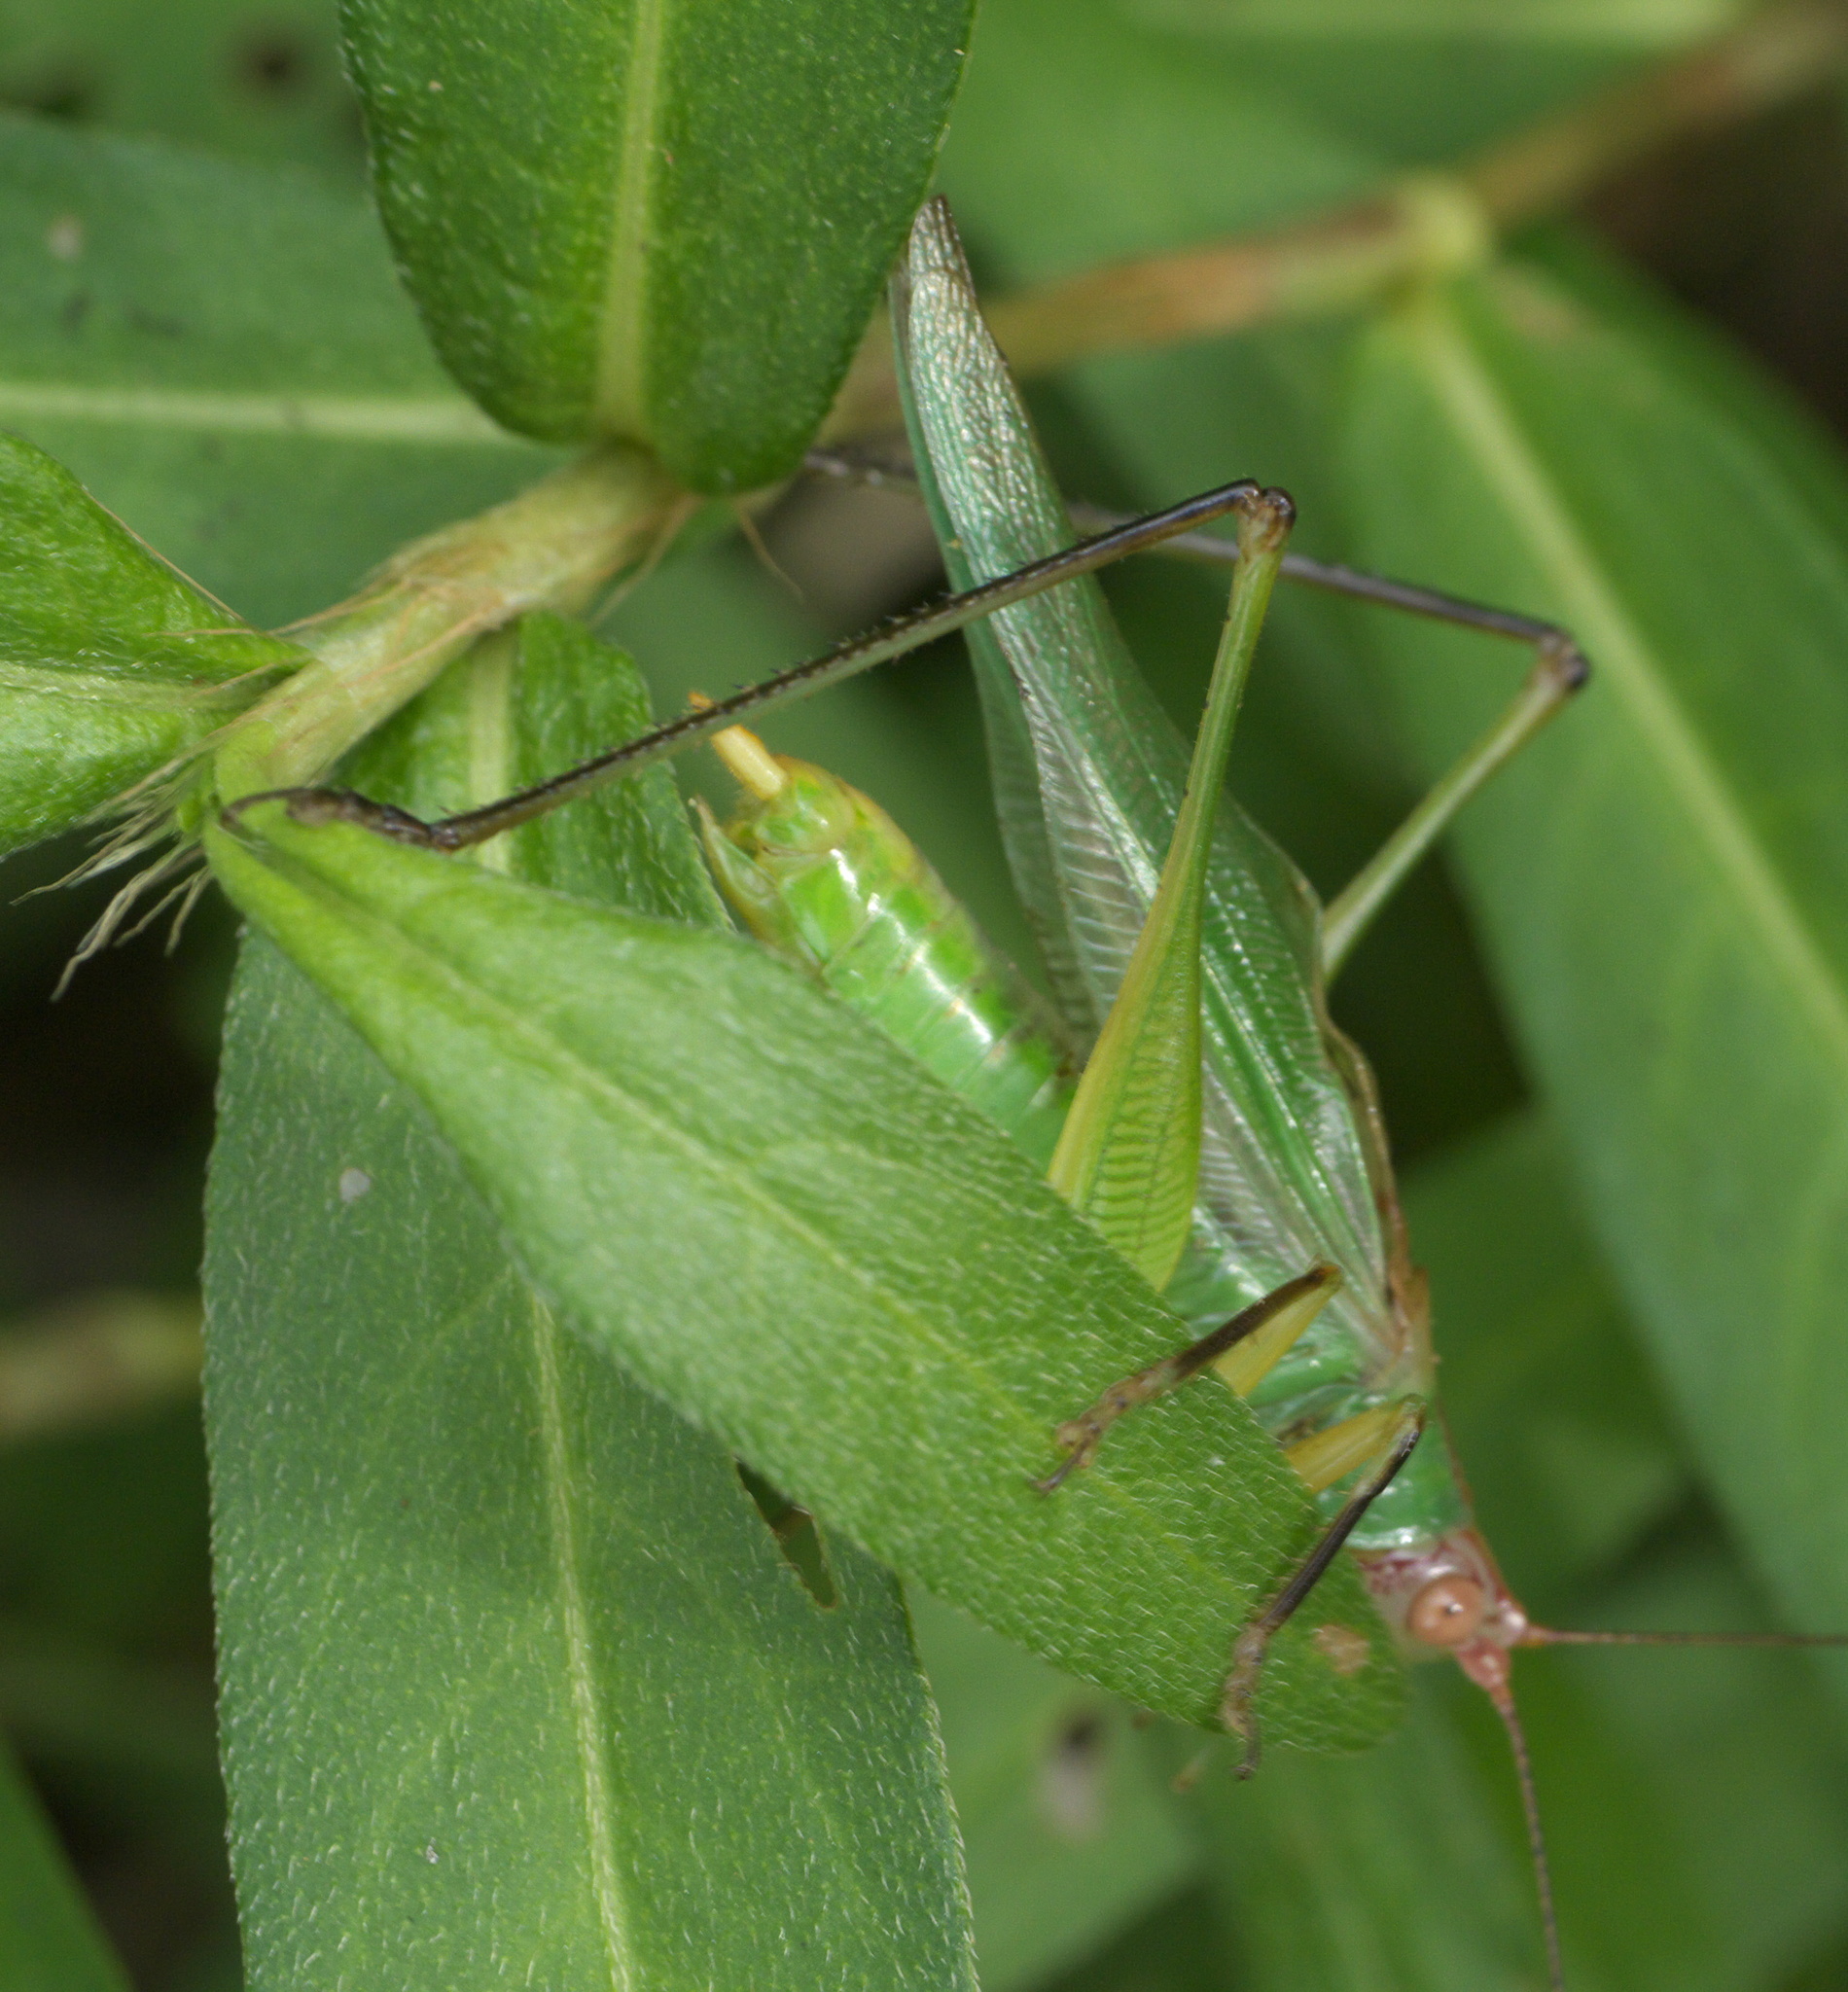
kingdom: Animalia
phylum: Arthropoda
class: Insecta
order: Orthoptera
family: Tettigoniidae
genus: Orchelimum
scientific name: Orchelimum nigripes
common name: Black-legged meadow katydid
